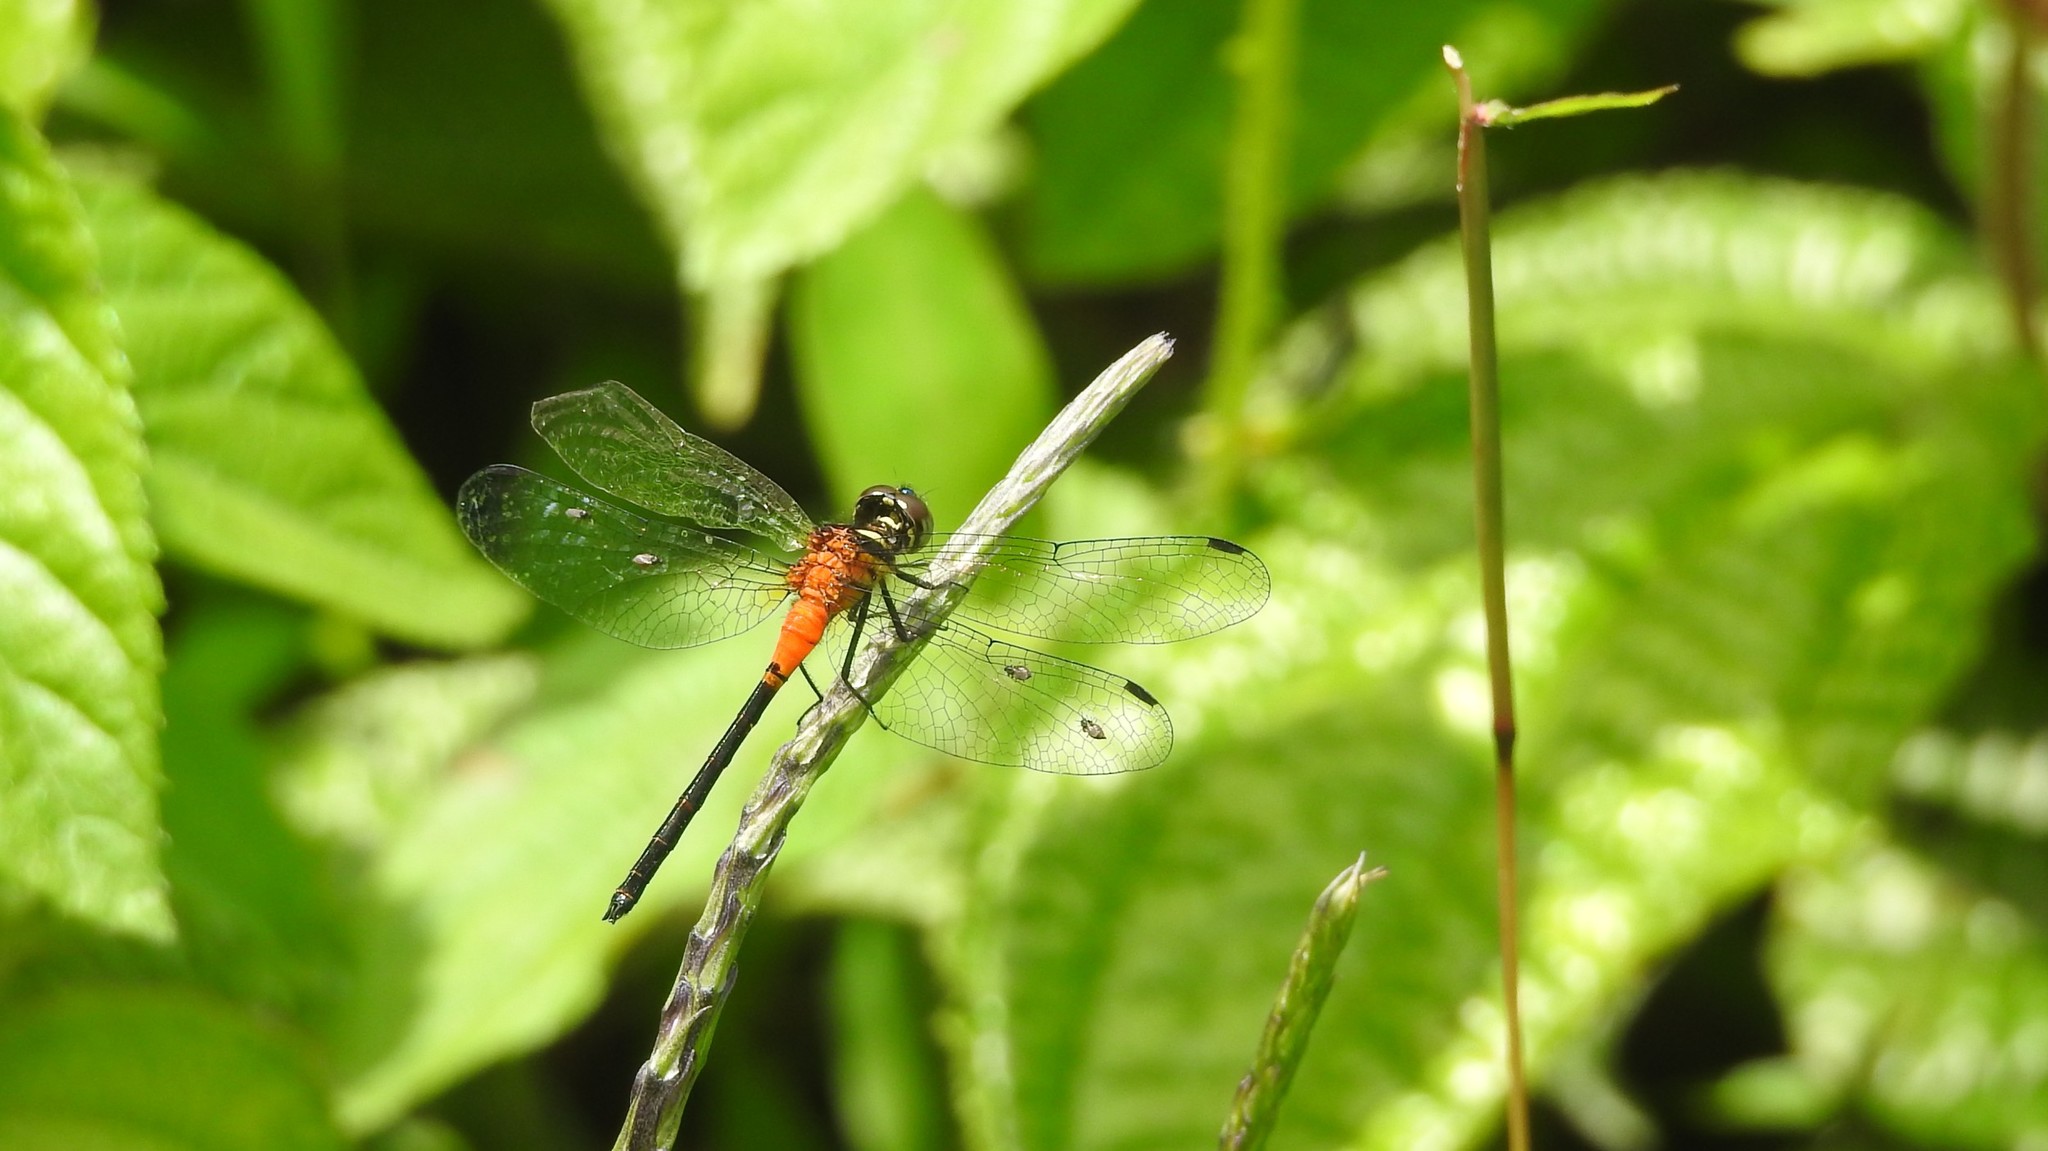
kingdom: Animalia
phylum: Arthropoda
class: Insecta
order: Odonata
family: Libellulidae
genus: Epithemis
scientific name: Epithemis mariae
